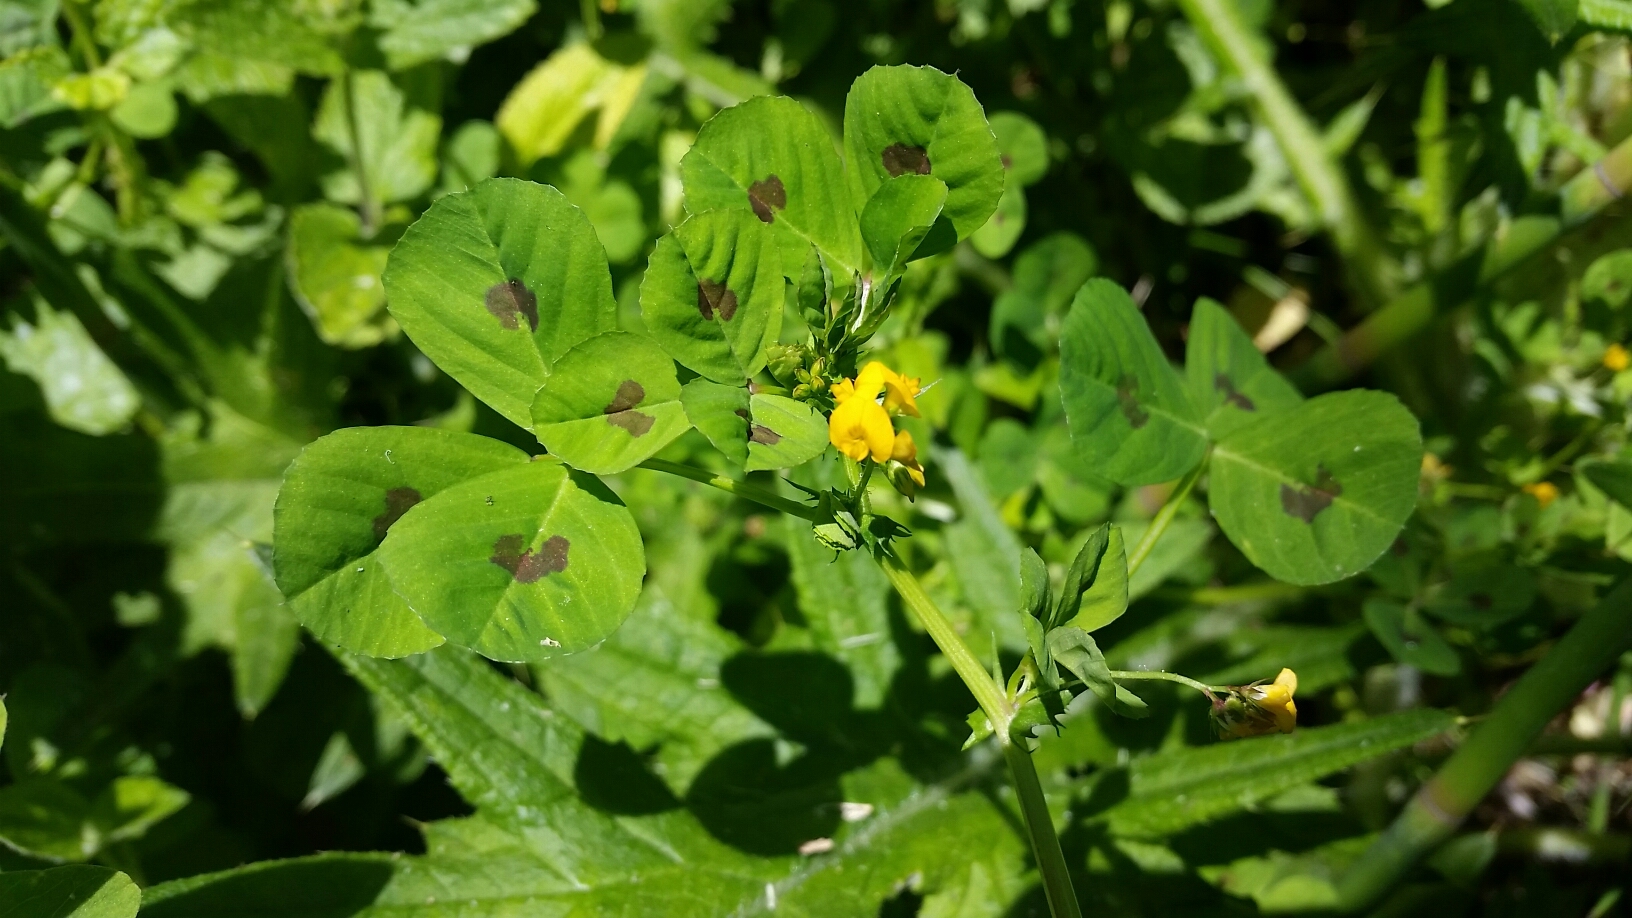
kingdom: Plantae
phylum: Tracheophyta
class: Magnoliopsida
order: Fabales
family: Fabaceae
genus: Medicago
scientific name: Medicago arabica
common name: Spotted medick
